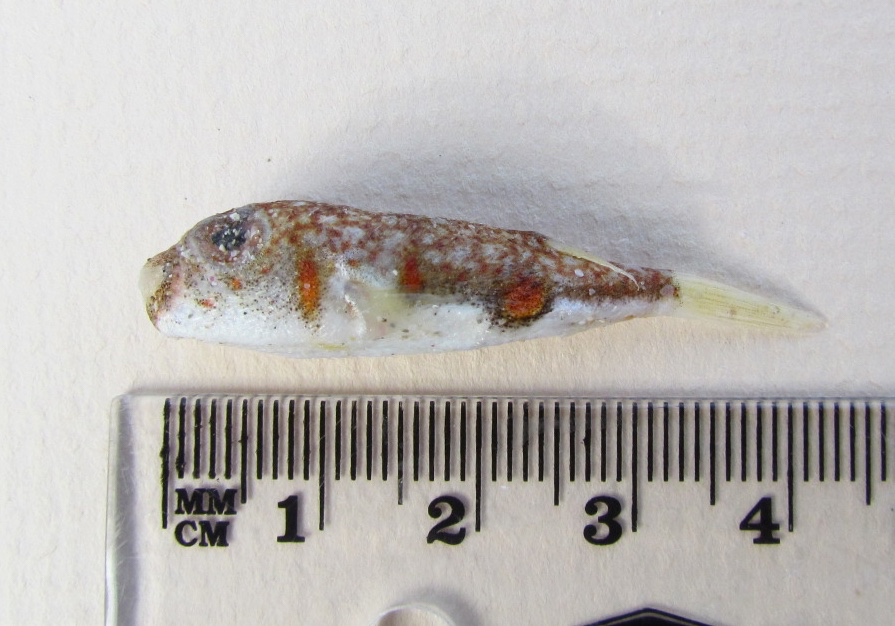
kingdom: Animalia
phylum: Chordata
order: Tetraodontiformes
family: Tetraodontidae
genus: Polyspina
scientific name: Polyspina piosae
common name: Orange-barred pufferfish
